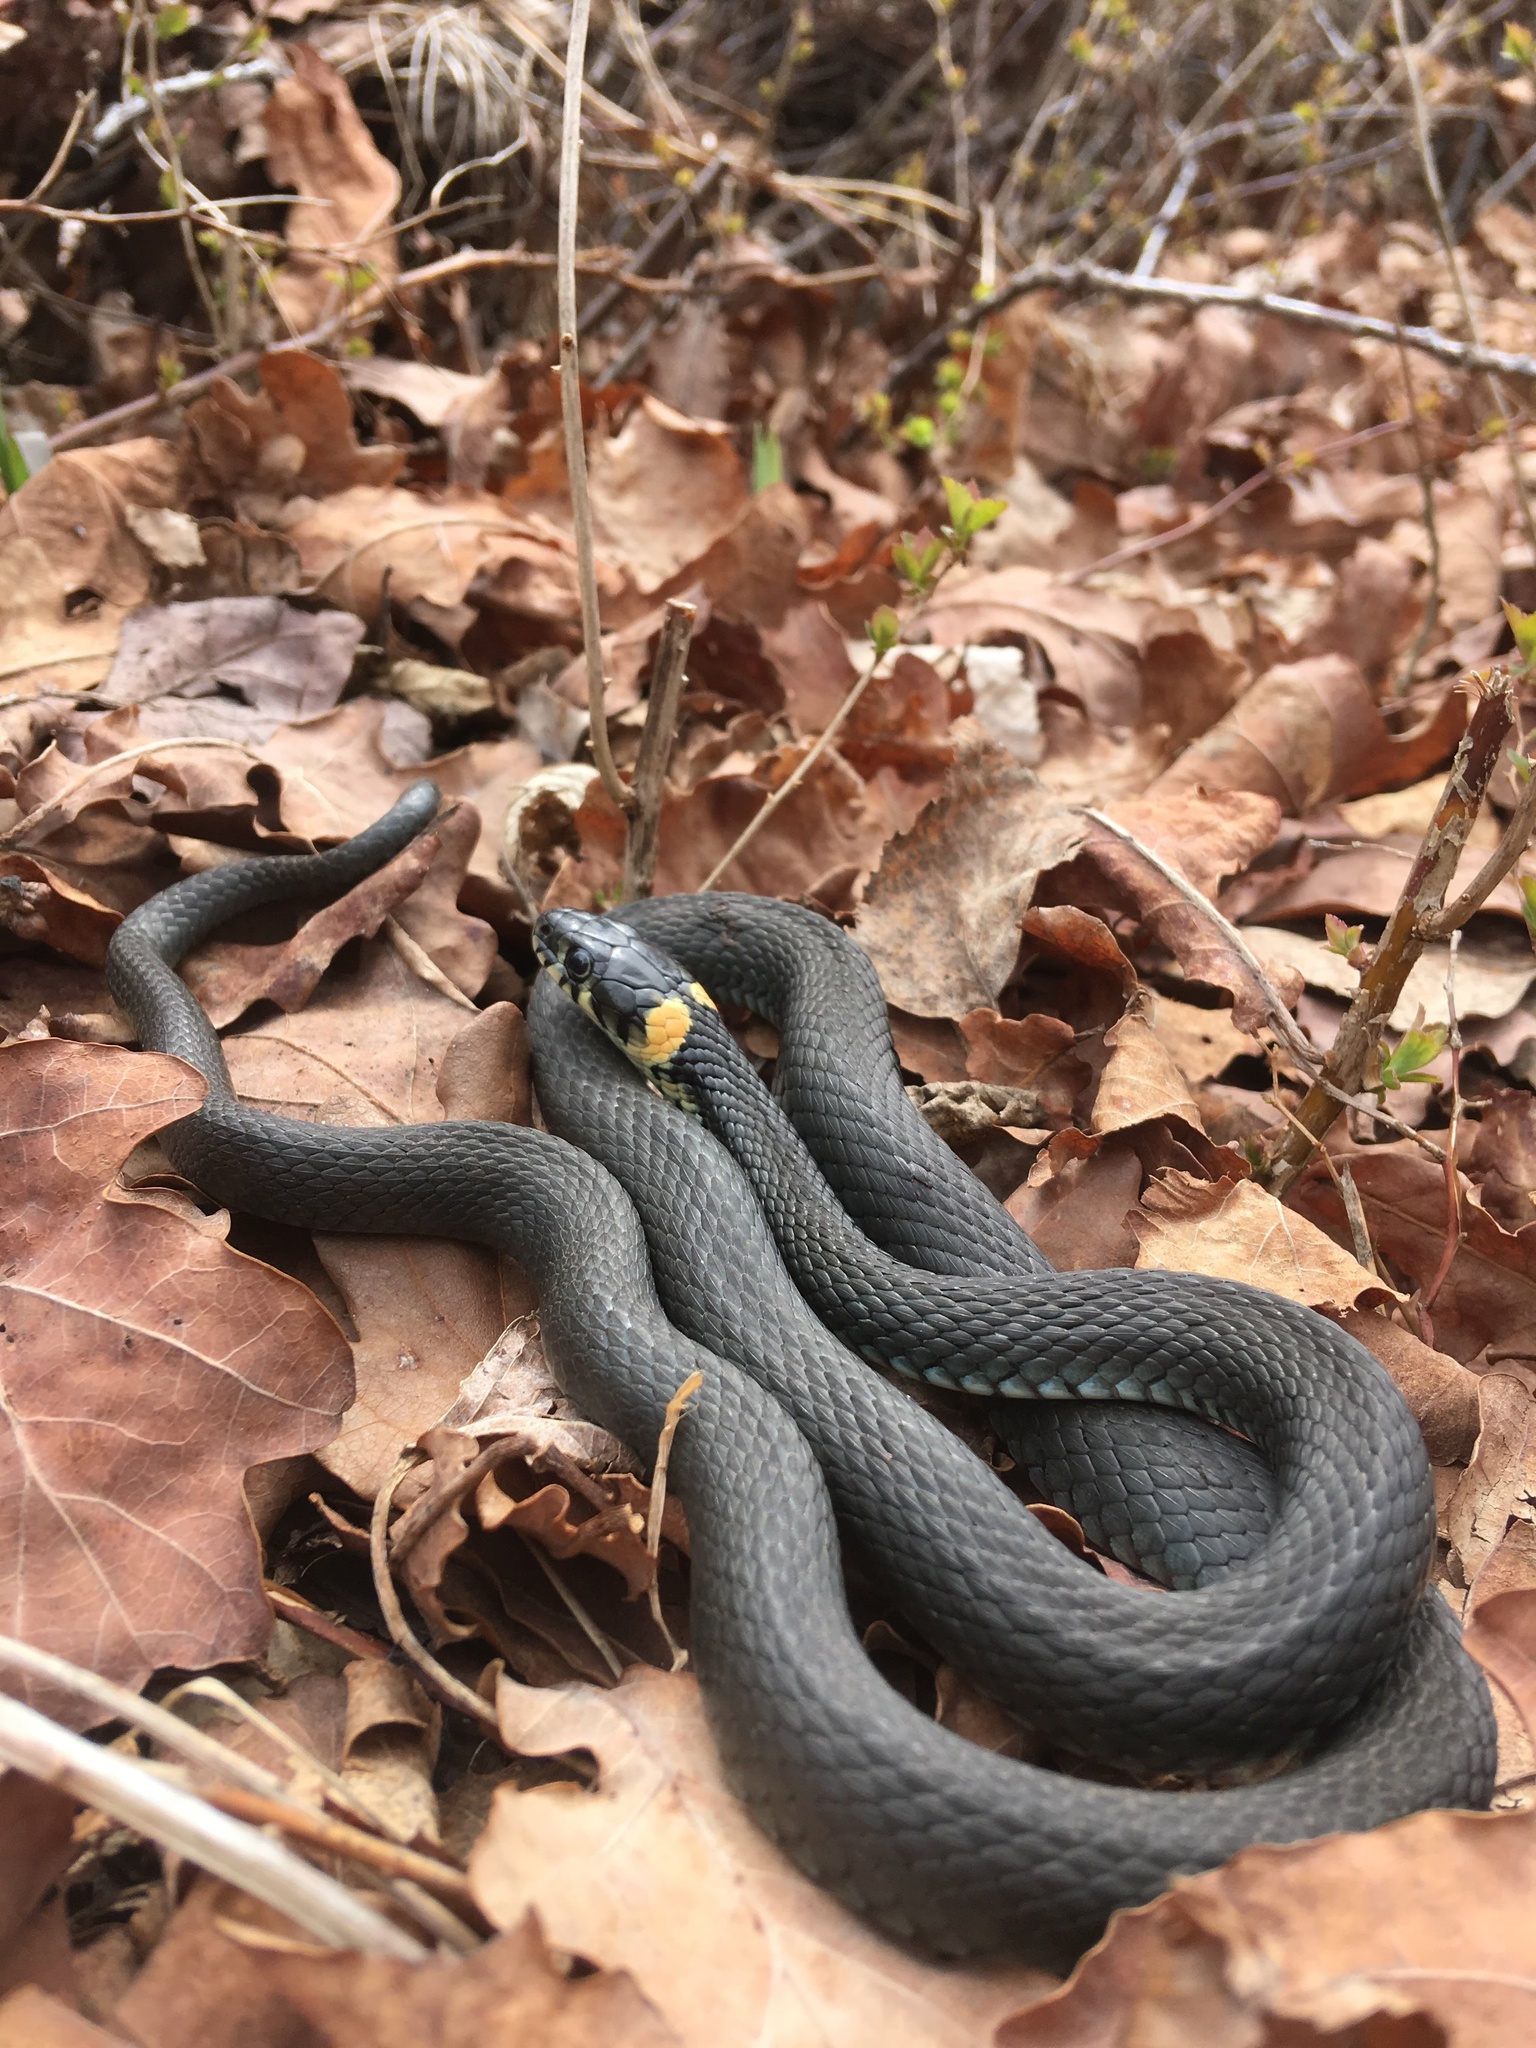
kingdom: Animalia
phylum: Chordata
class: Squamata
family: Colubridae
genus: Natrix
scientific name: Natrix natrix
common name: Grass snake
